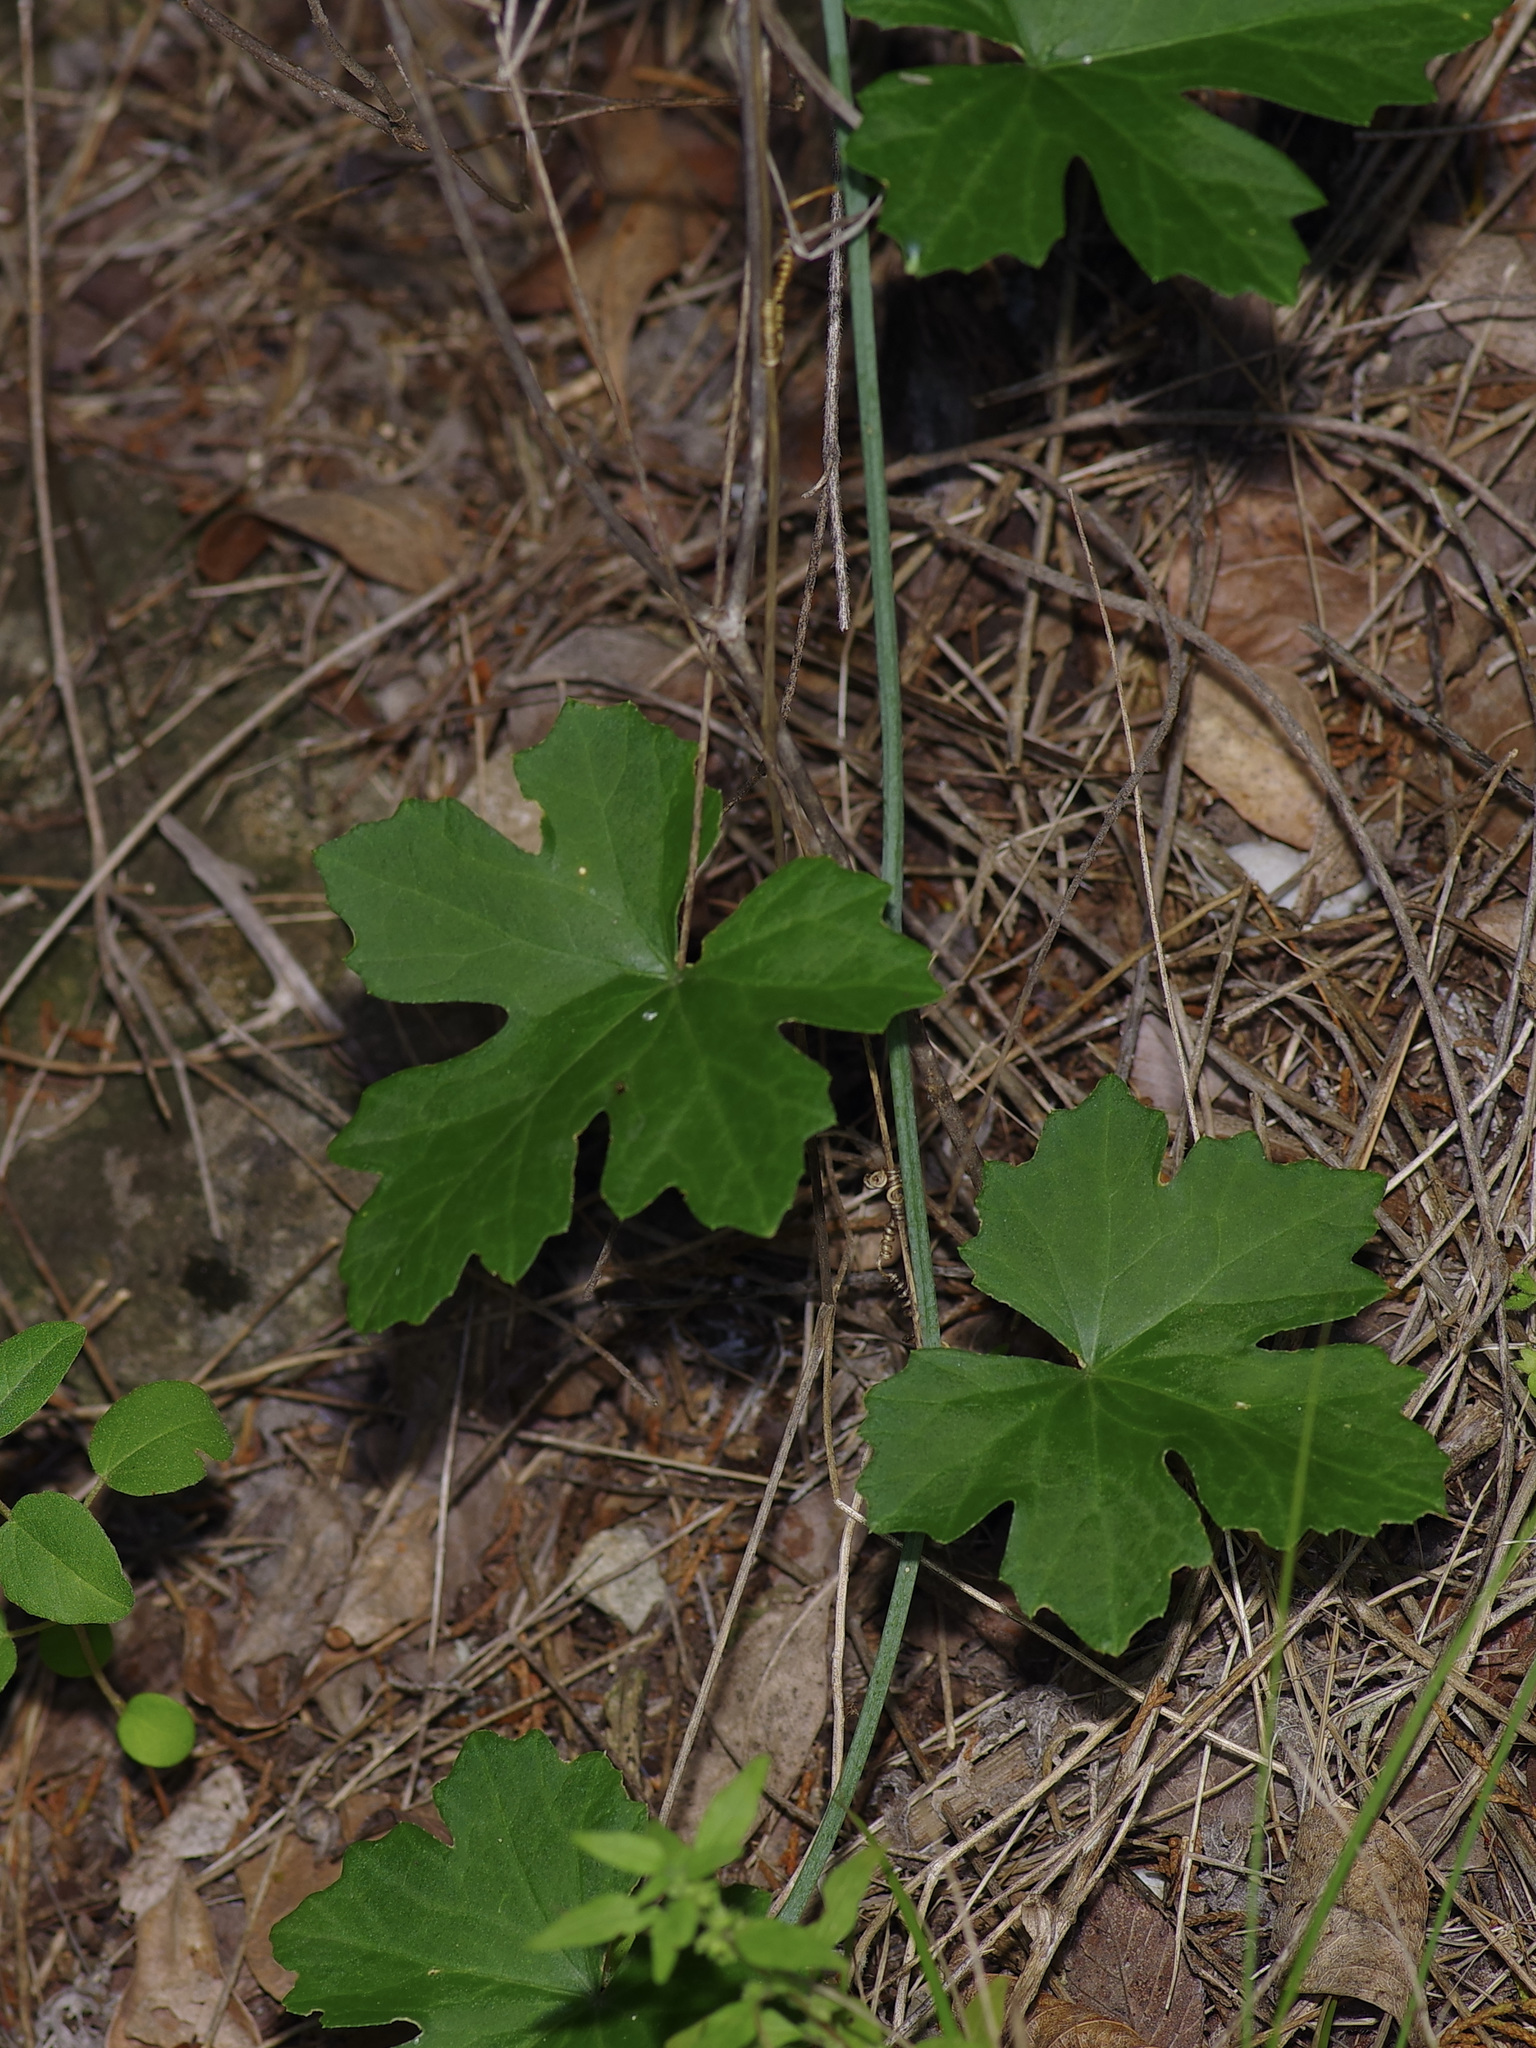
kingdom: Plantae
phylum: Tracheophyta
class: Magnoliopsida
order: Cucurbitales
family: Cucurbitaceae
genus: Ibervillea
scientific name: Ibervillea lindheimeri
